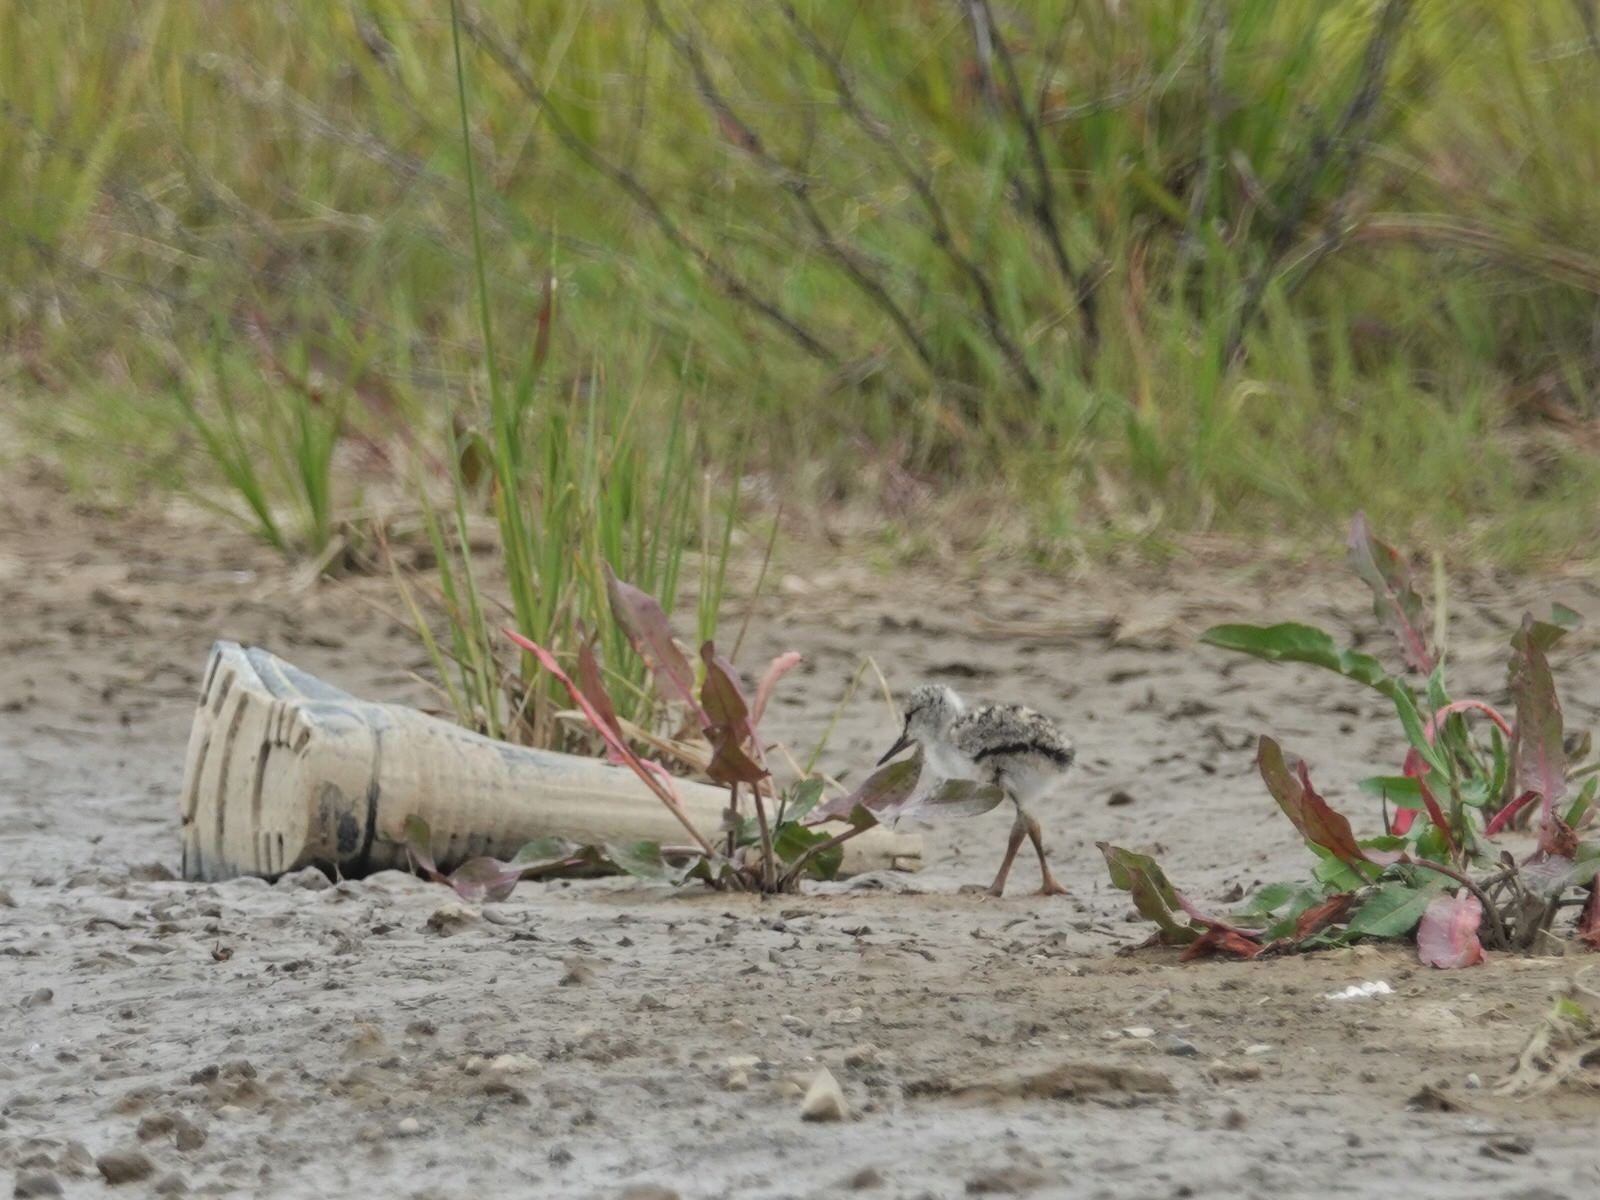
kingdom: Animalia
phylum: Chordata
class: Aves
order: Charadriiformes
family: Recurvirostridae
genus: Himantopus
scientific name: Himantopus leucocephalus
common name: White-headed stilt
